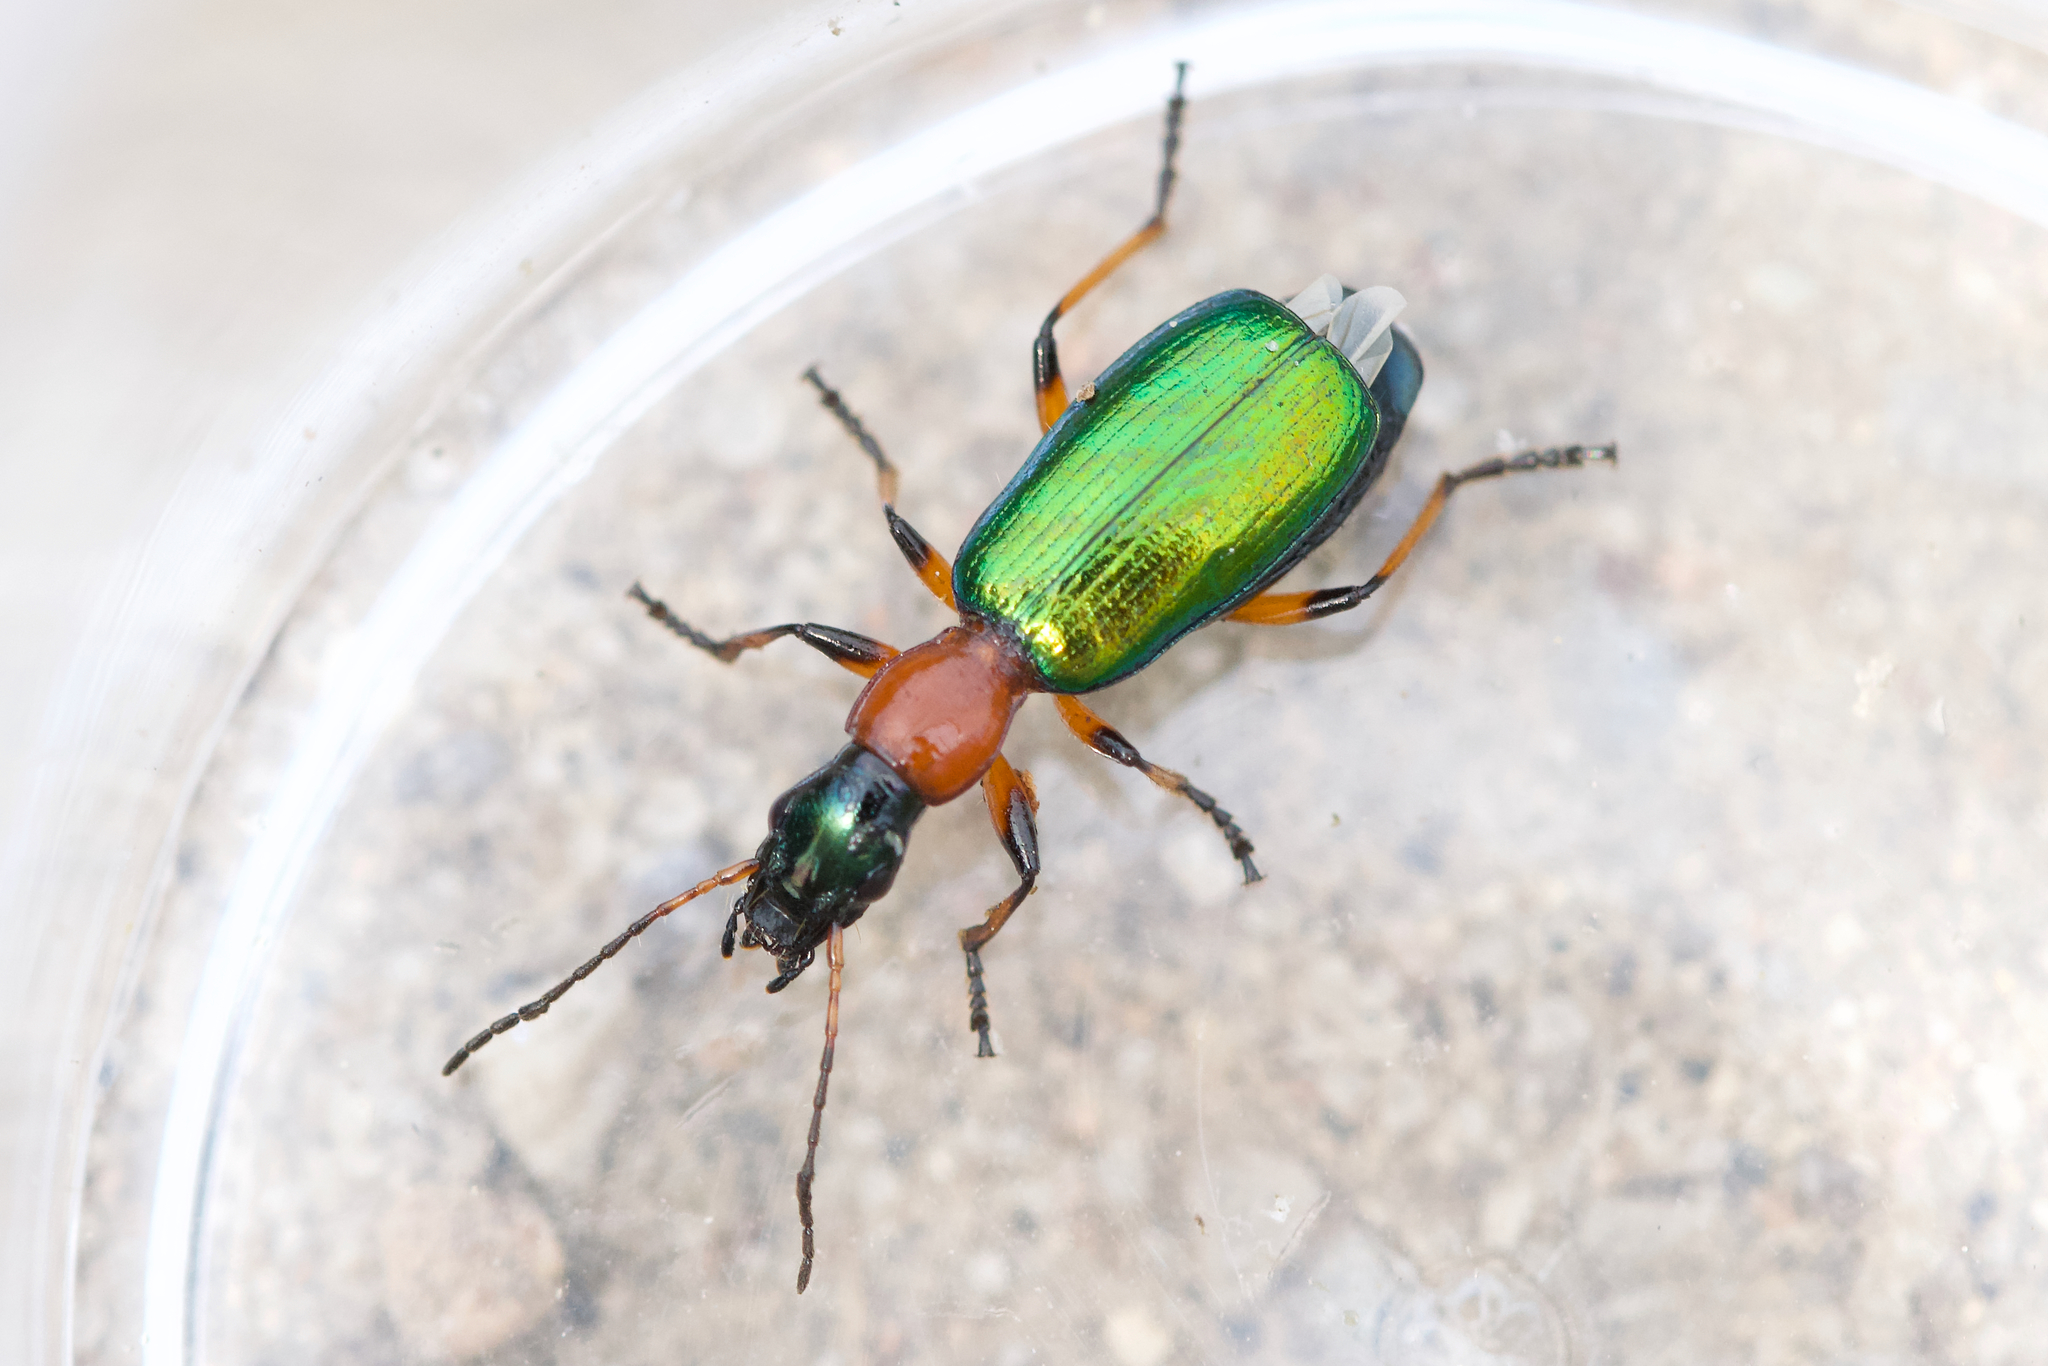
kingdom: Animalia
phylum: Arthropoda
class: Insecta
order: Coleoptera
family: Carabidae
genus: Calleida
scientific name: Calleida punctata
